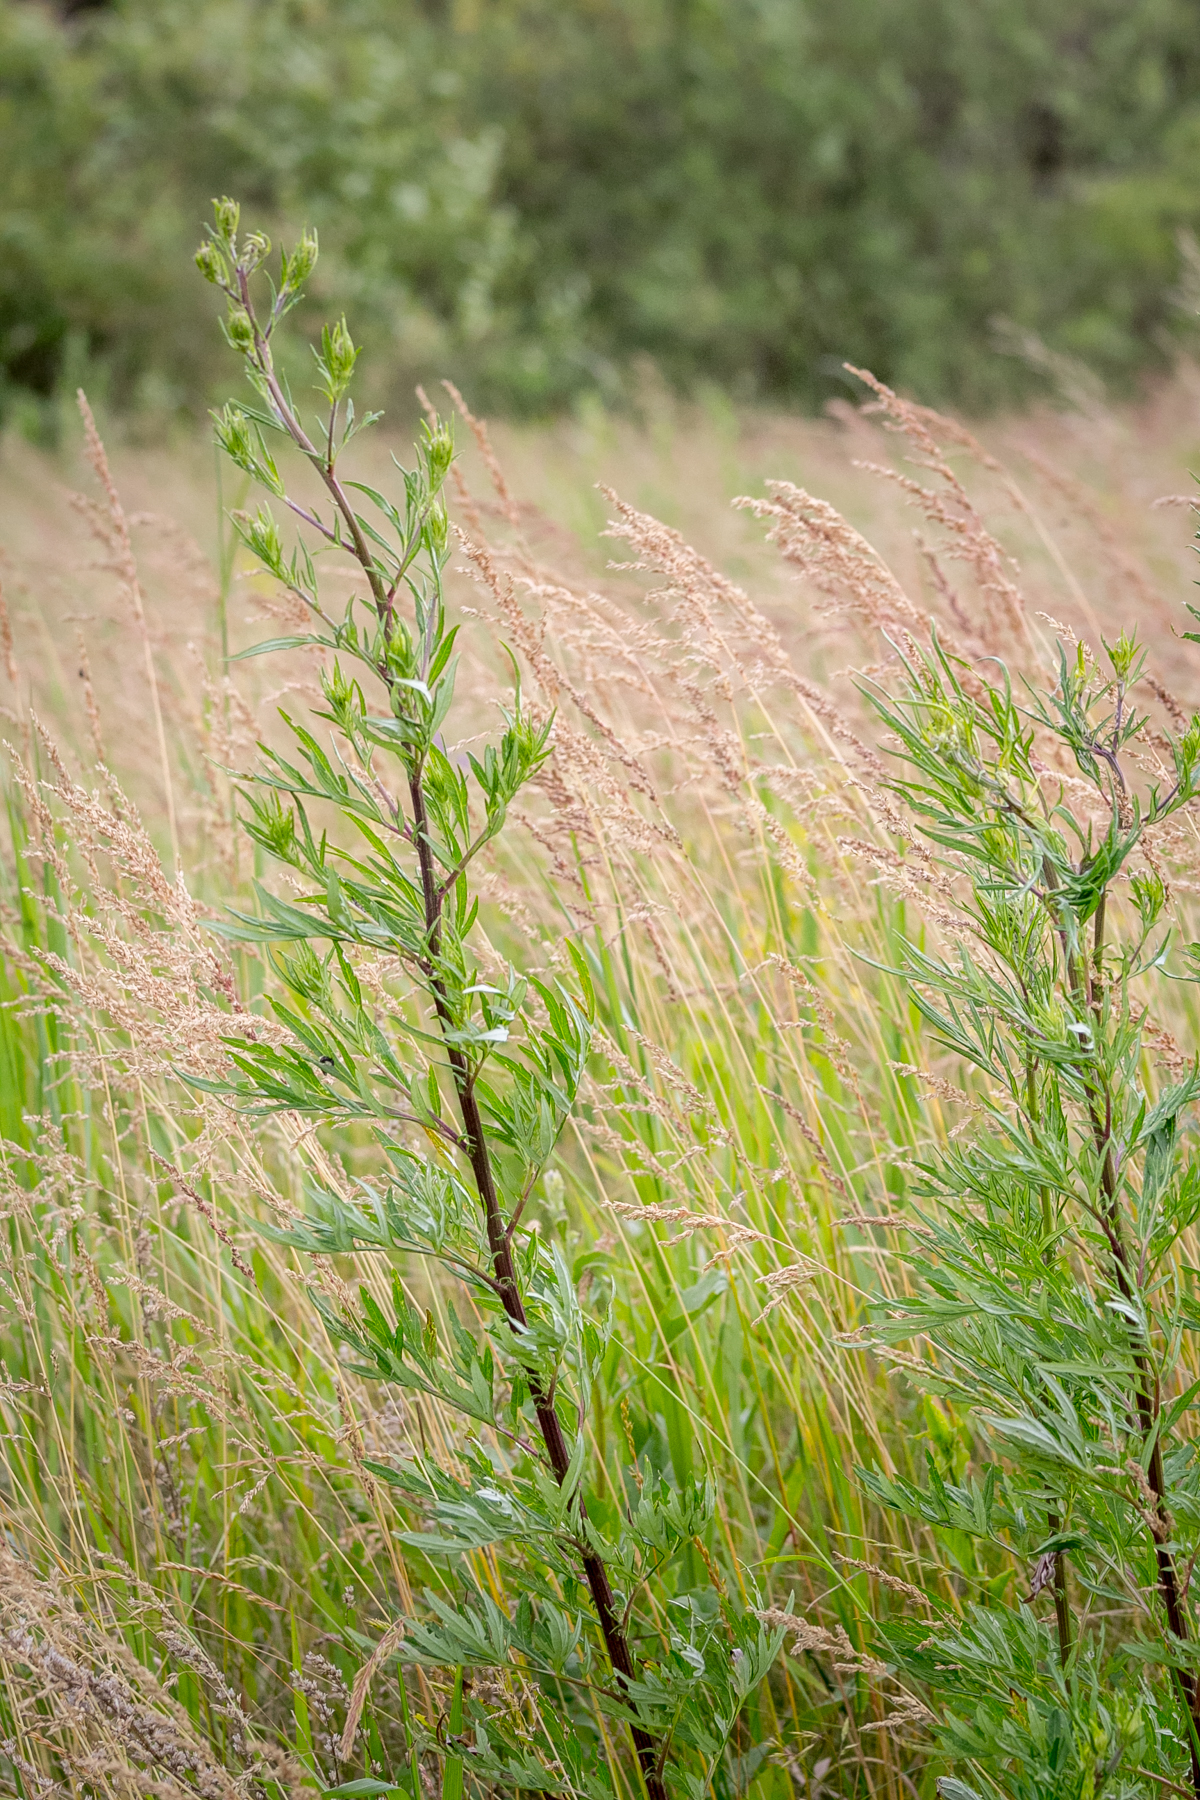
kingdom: Plantae
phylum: Tracheophyta
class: Magnoliopsida
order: Asterales
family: Asteraceae
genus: Artemisia
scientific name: Artemisia vulgaris
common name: Mugwort
